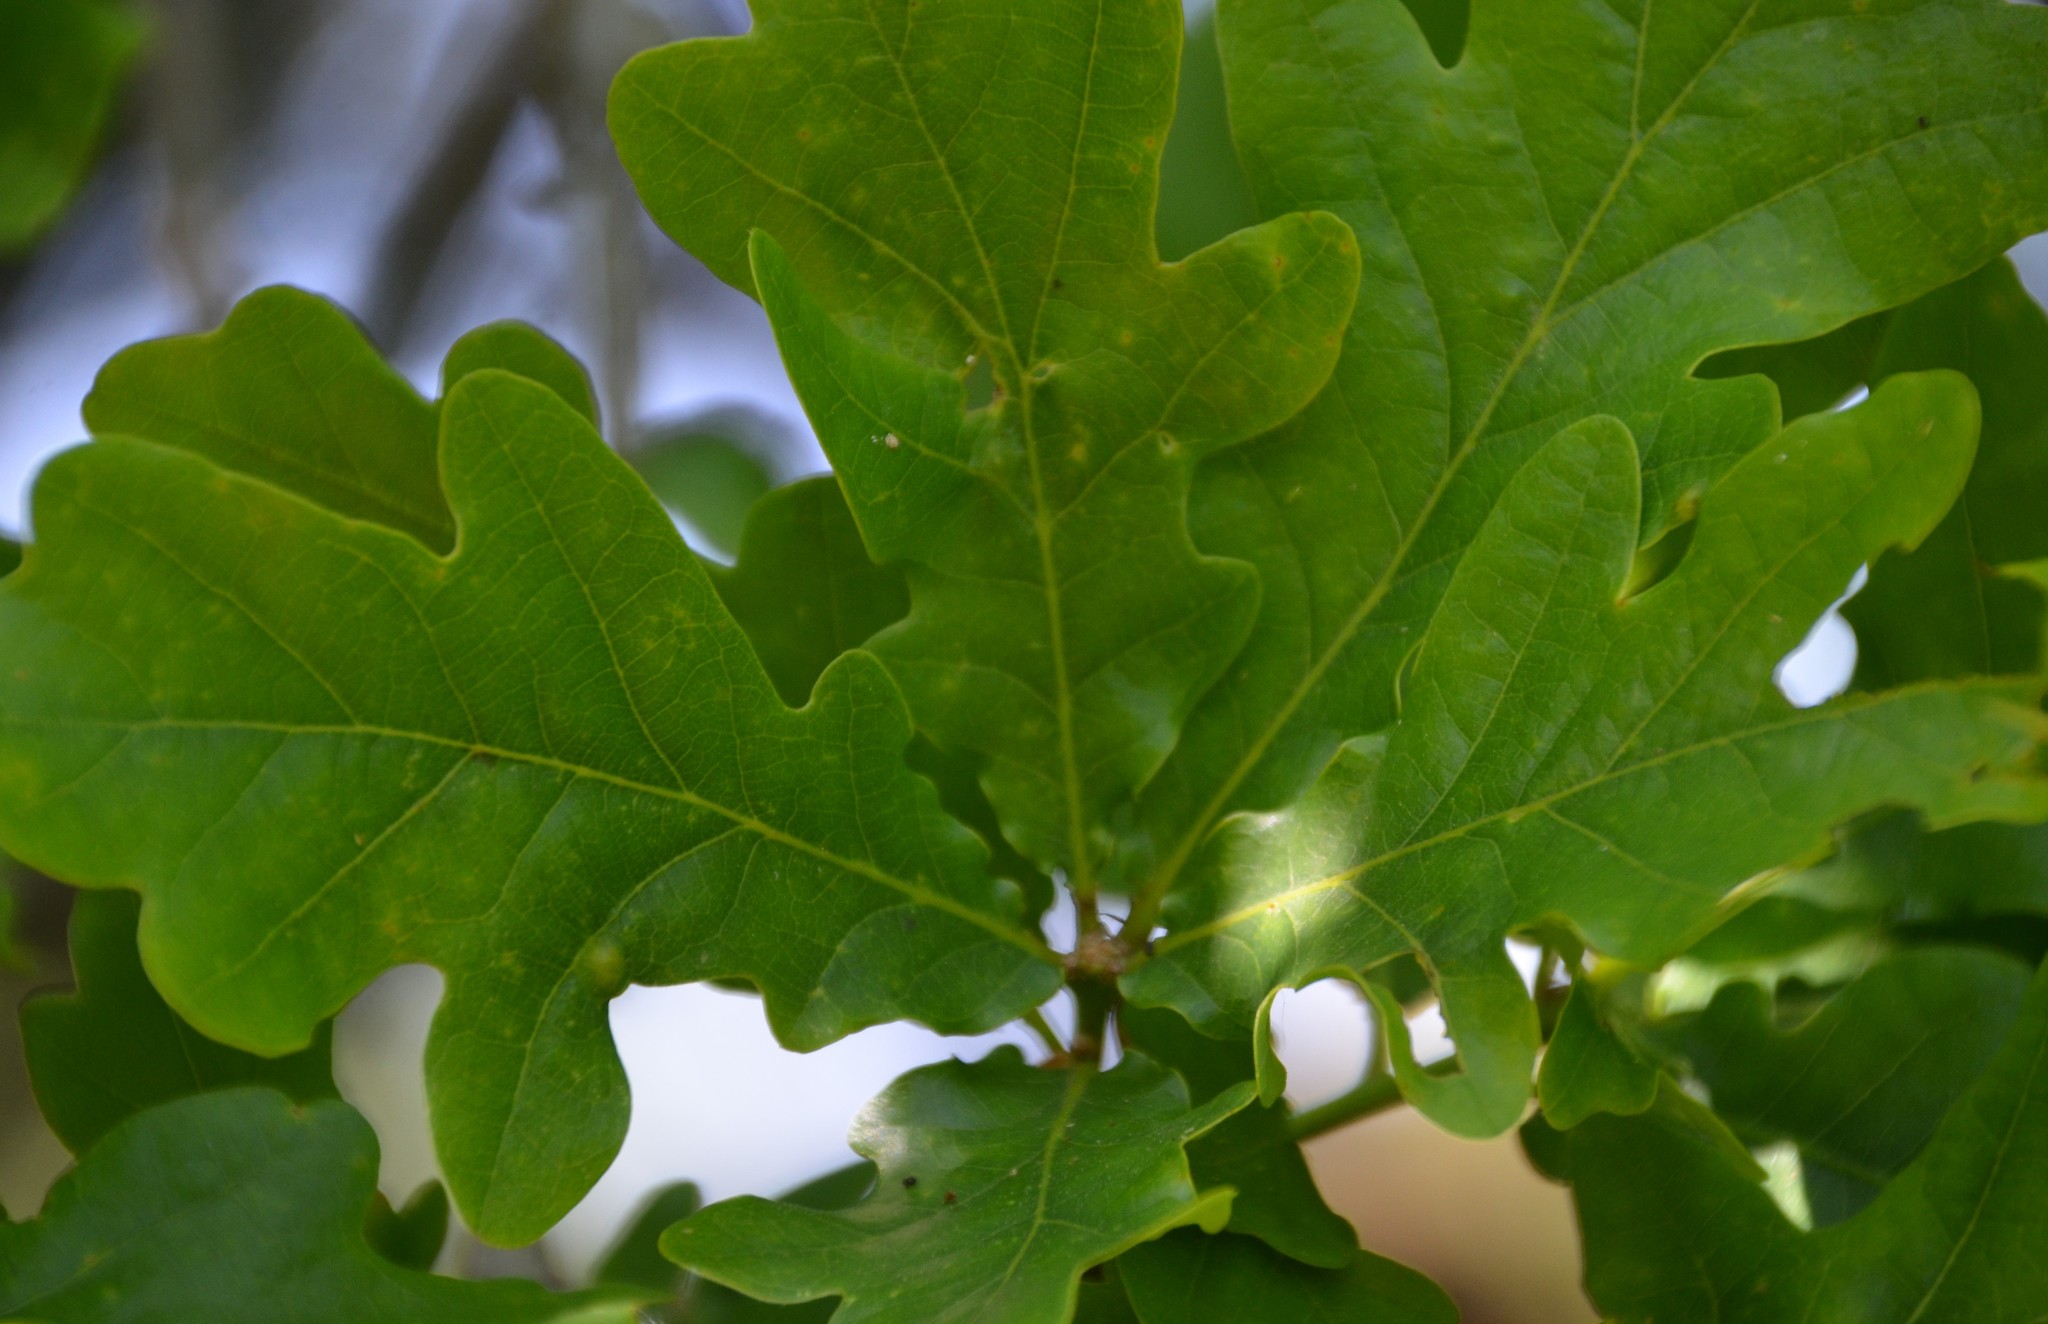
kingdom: Plantae
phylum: Tracheophyta
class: Magnoliopsida
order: Fagales
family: Fagaceae
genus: Quercus
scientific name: Quercus robur
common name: Pedunculate oak
